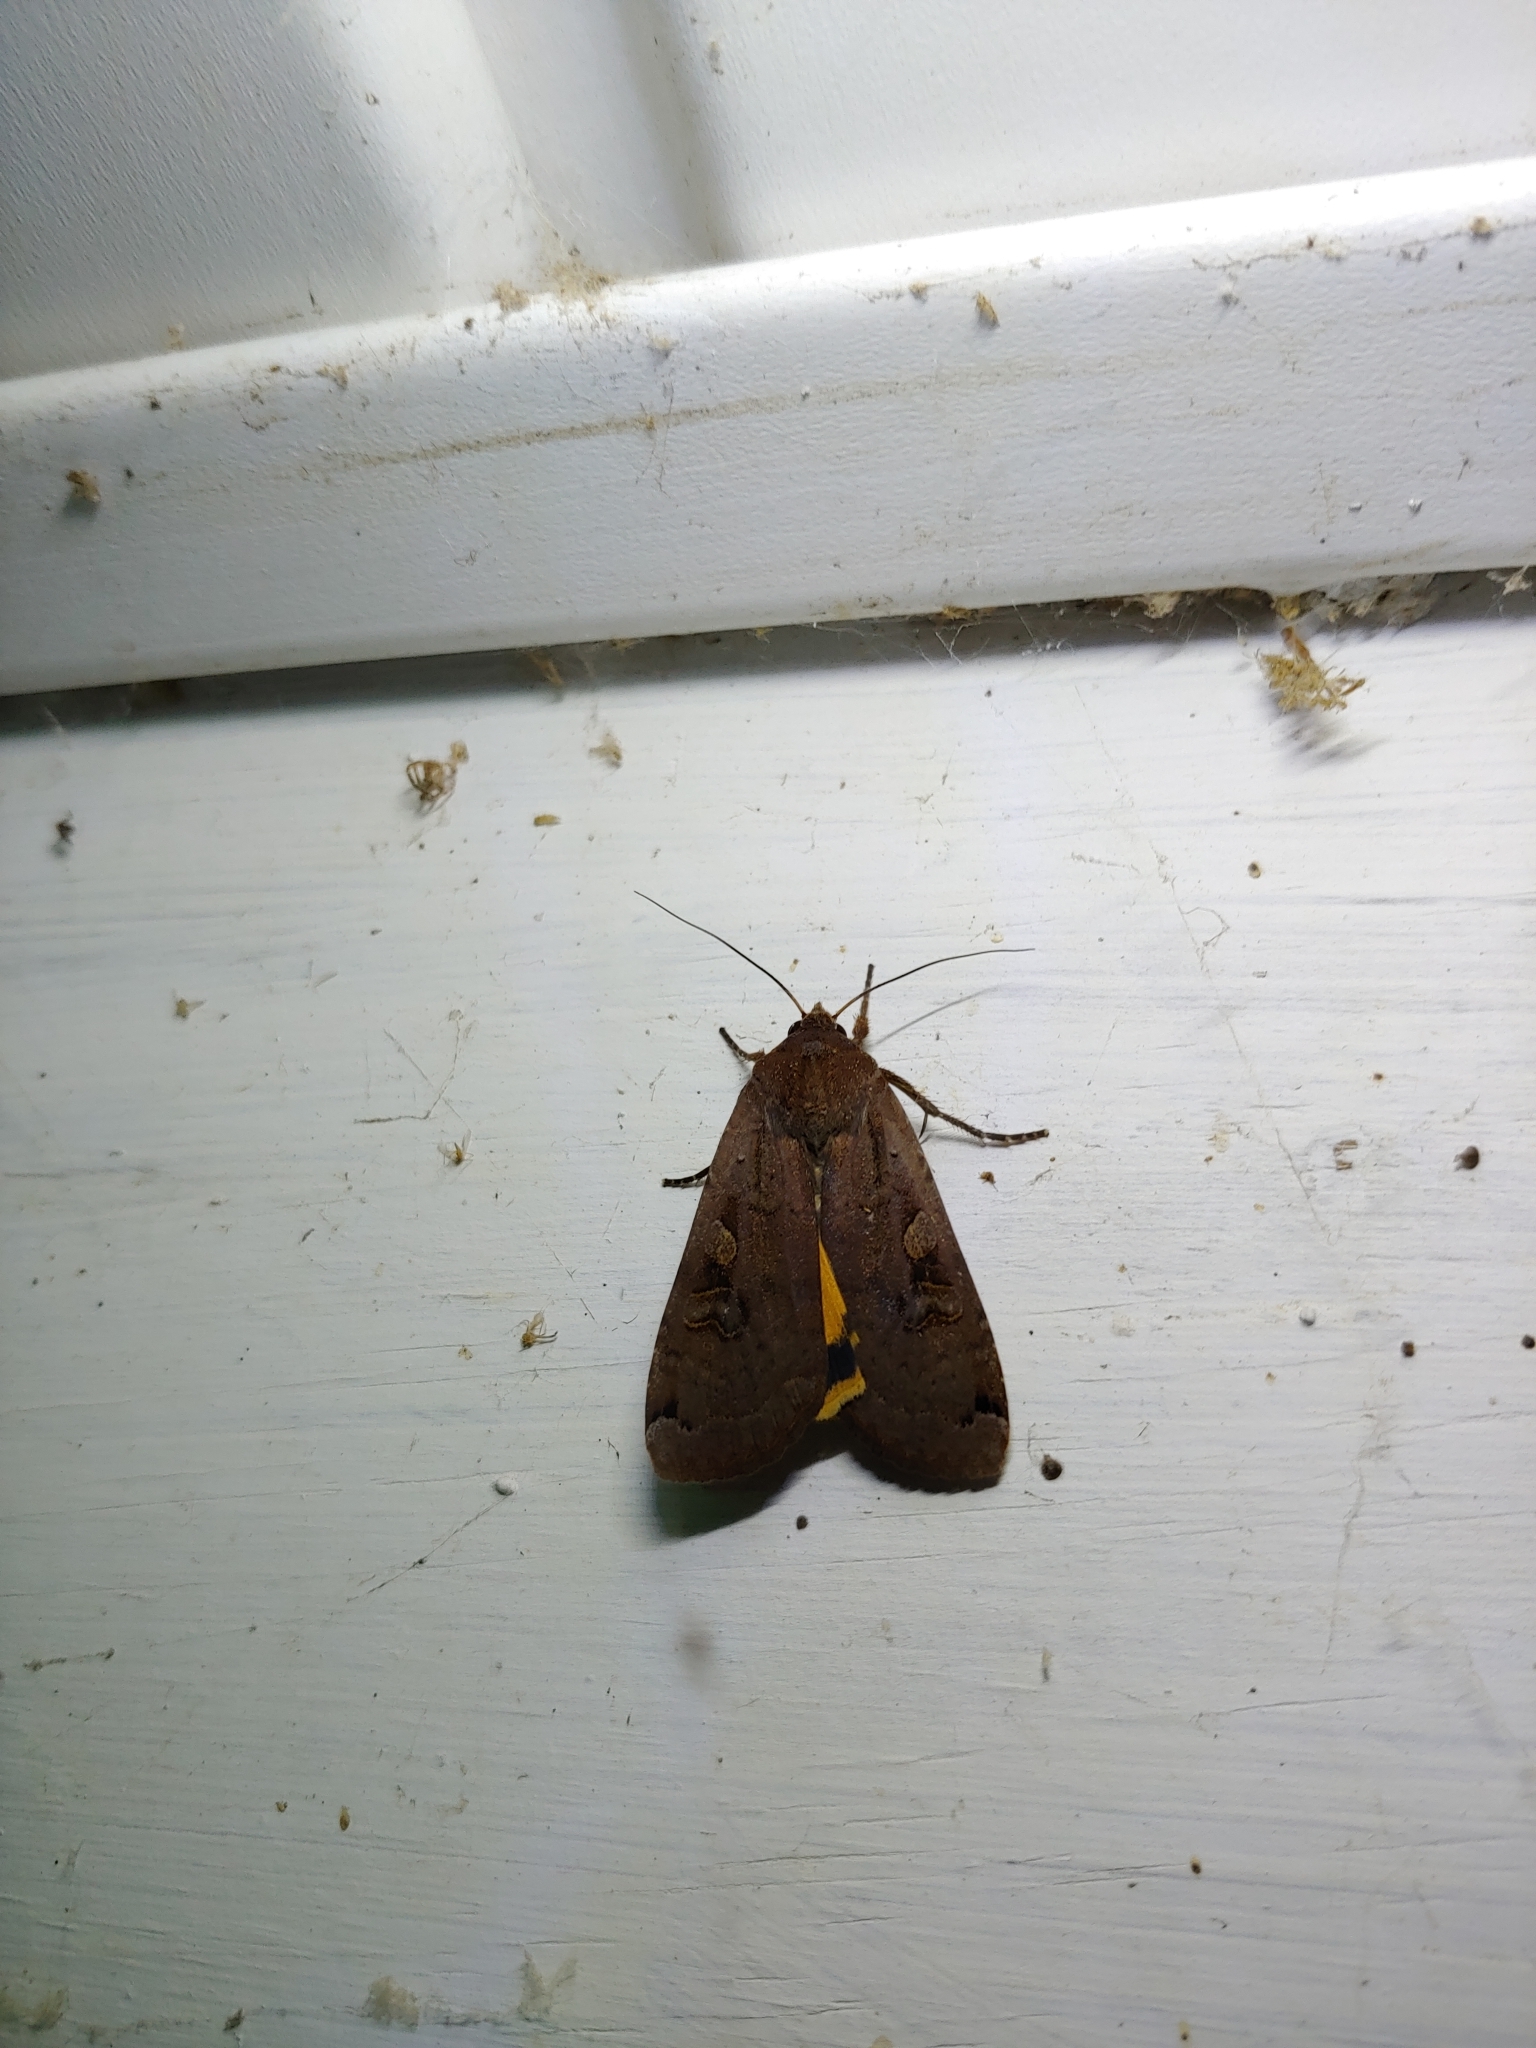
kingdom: Animalia
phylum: Arthropoda
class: Insecta
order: Lepidoptera
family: Noctuidae
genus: Noctua
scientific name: Noctua pronuba
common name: Large yellow underwing
